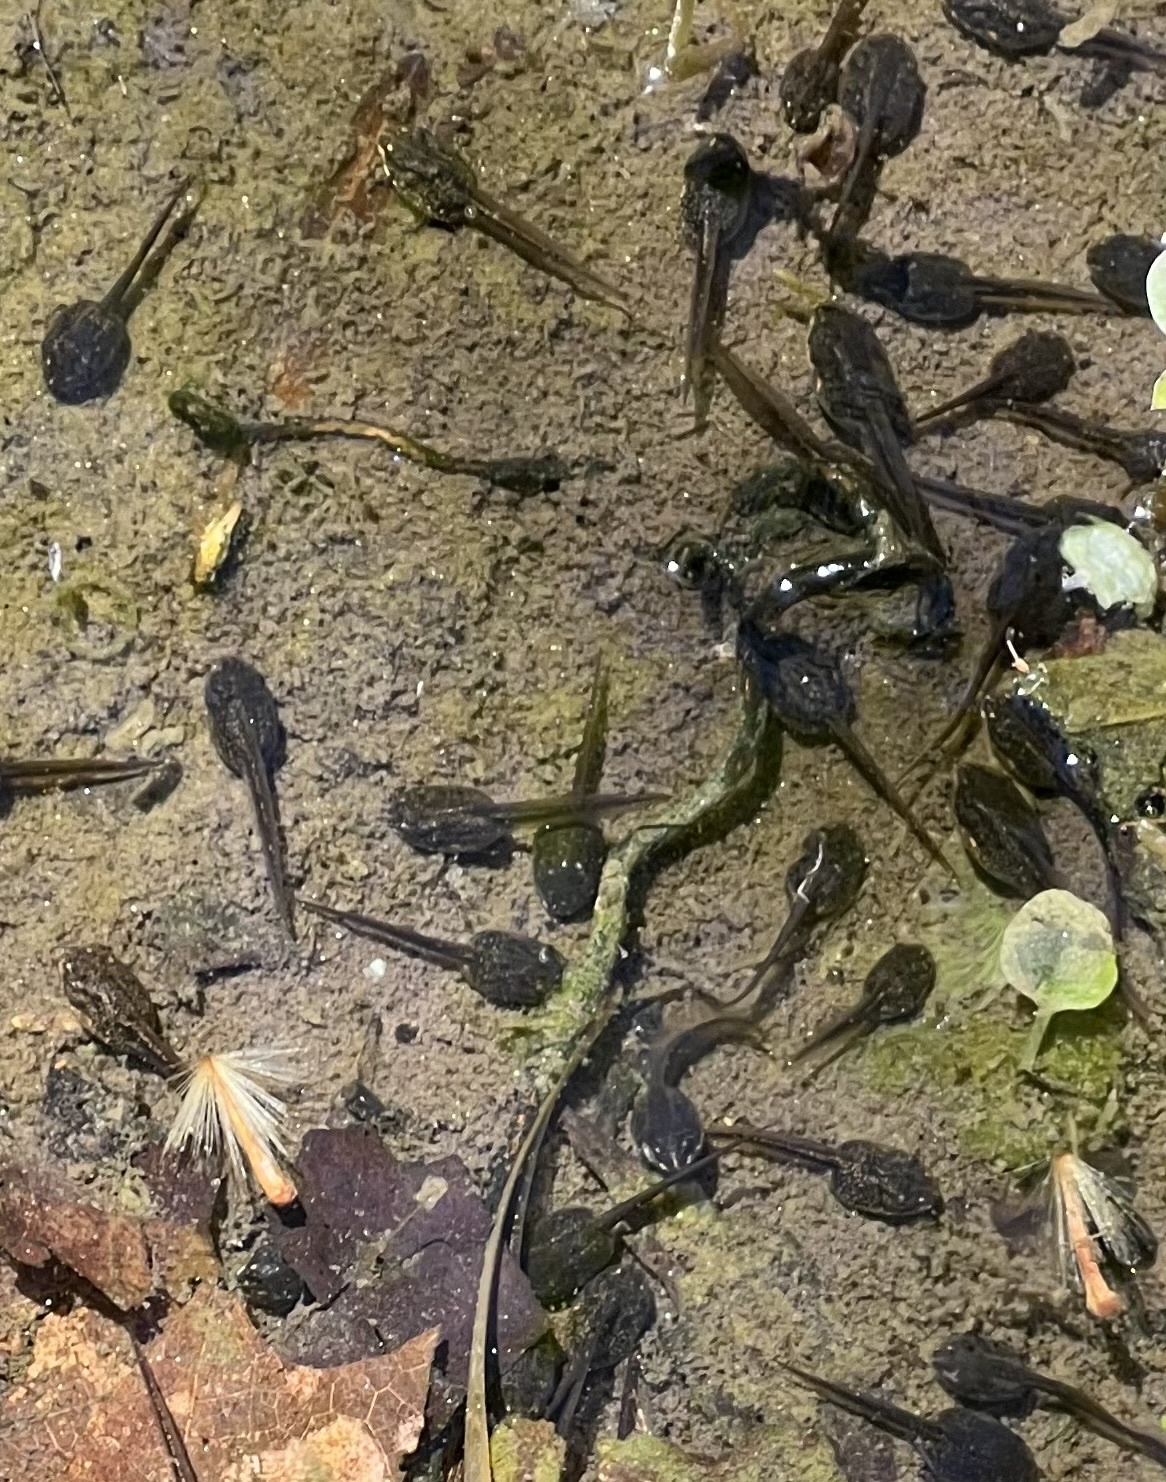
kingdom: Animalia
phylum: Chordata
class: Amphibia
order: Anura
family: Ranidae
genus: Lithobates
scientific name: Lithobates sylvaticus
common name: Wood frog
